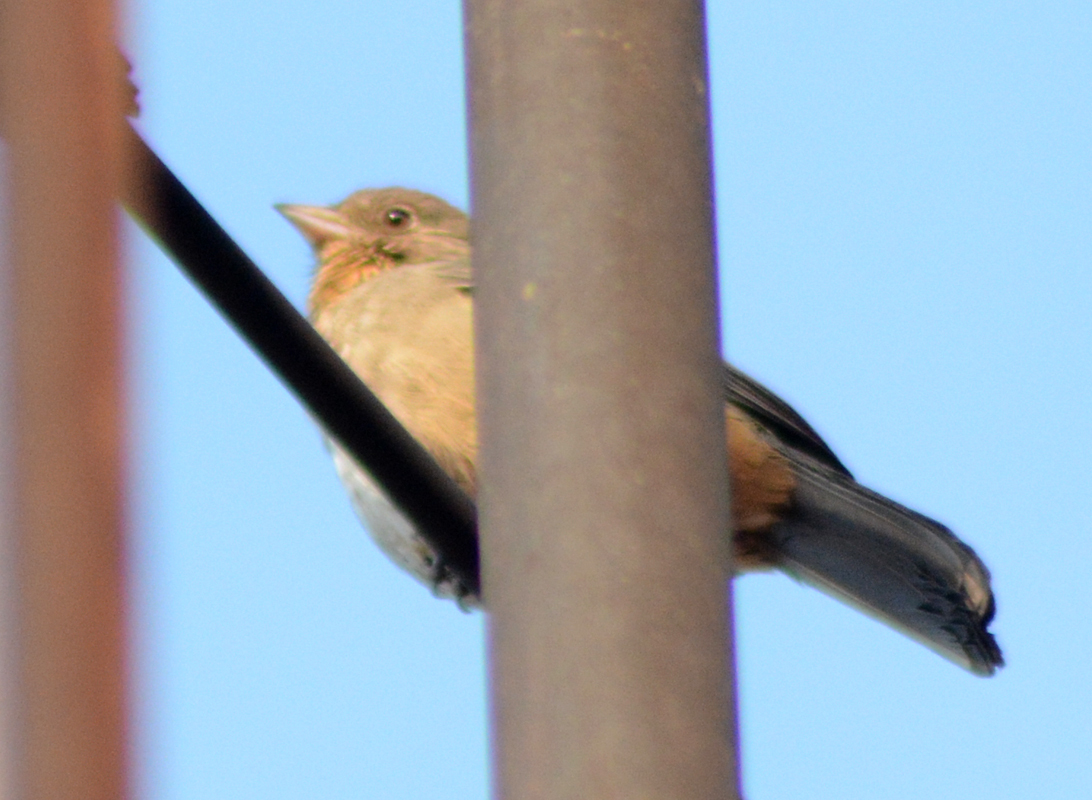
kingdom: Animalia
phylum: Chordata
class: Aves
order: Passeriformes
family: Passerellidae
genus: Melozone
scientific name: Melozone fusca
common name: Canyon towhee
